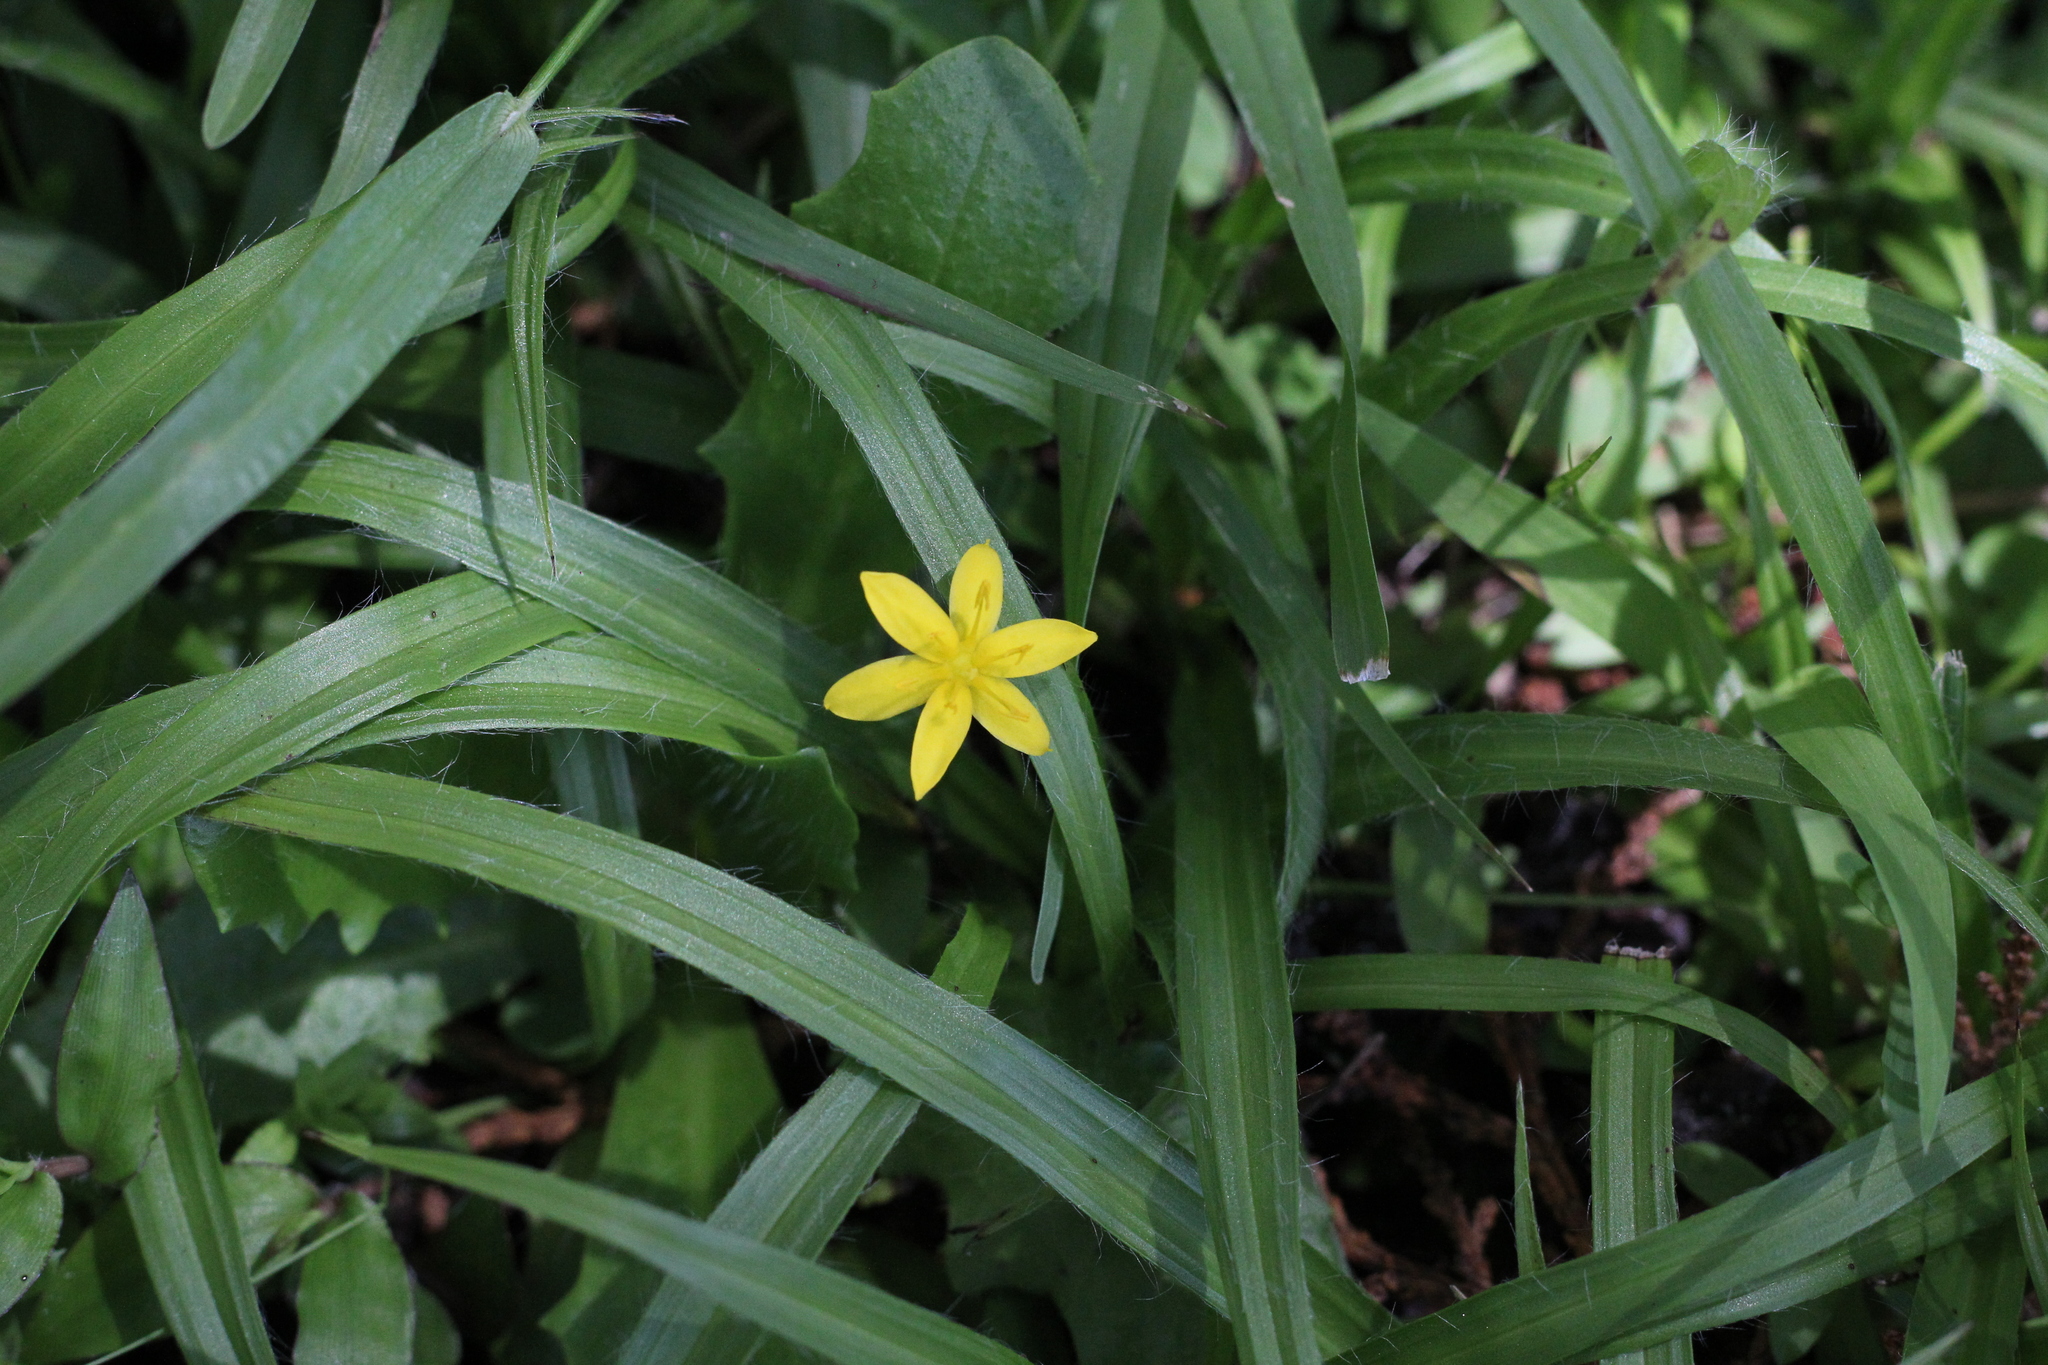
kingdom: Plantae
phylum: Tracheophyta
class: Liliopsida
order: Asparagales
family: Hypoxidaceae
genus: Hypoxis
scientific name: Hypoxis decumbens
